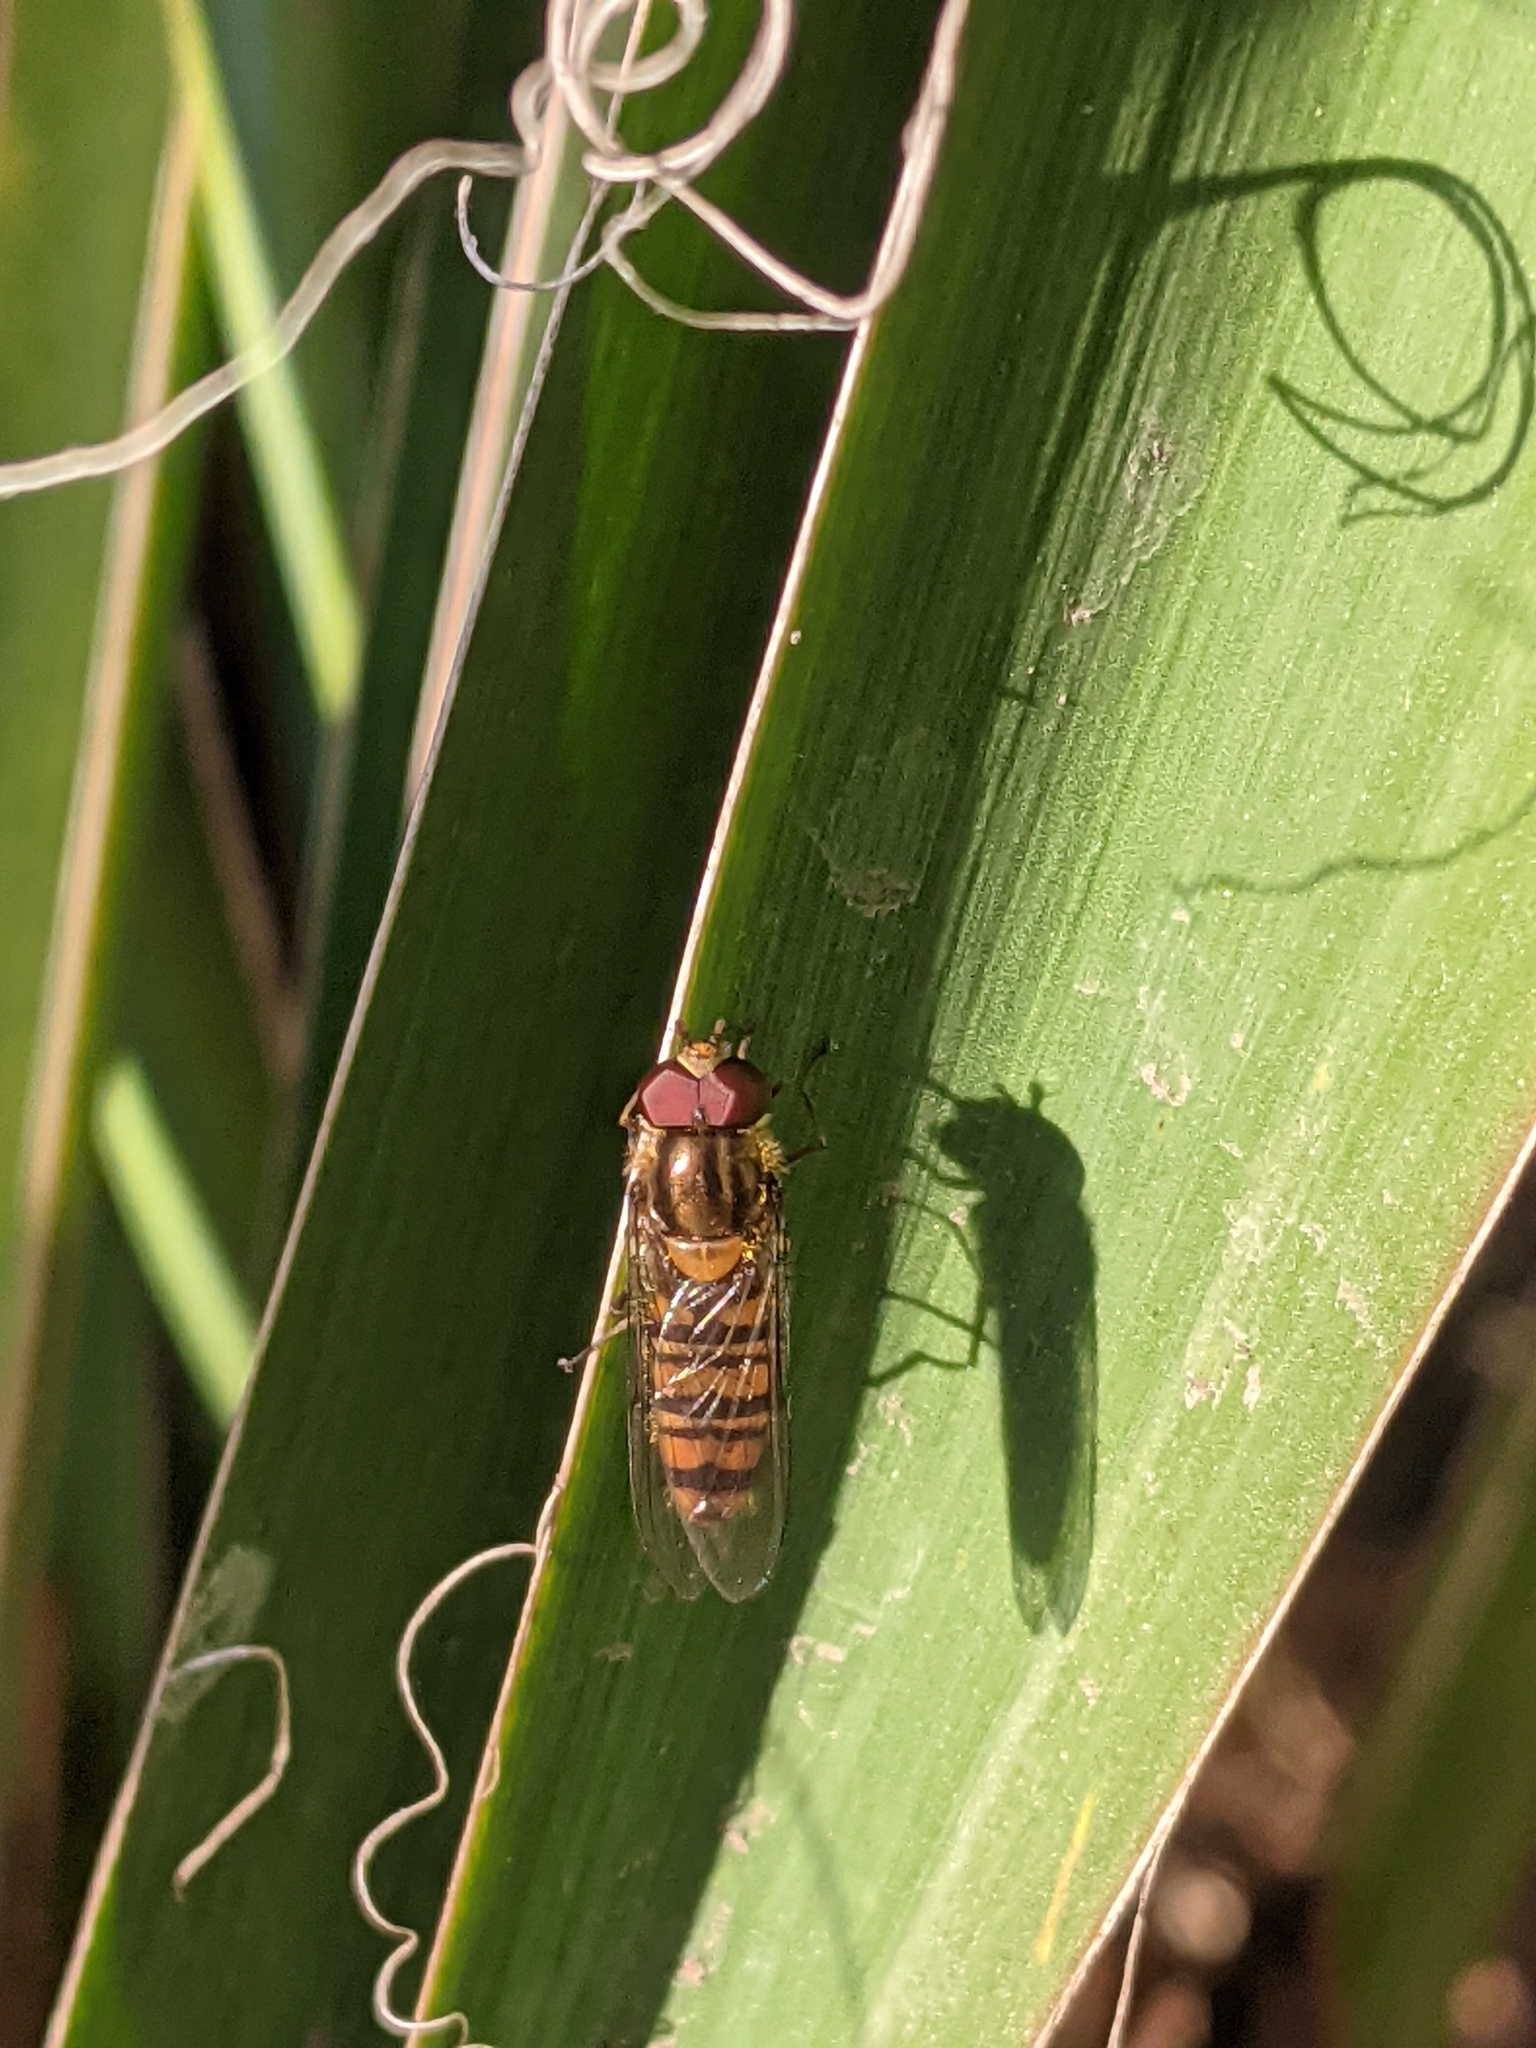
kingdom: Animalia
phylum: Arthropoda
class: Insecta
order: Diptera
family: Syrphidae
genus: Episyrphus
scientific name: Episyrphus balteatus
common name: Marmalade hoverfly
